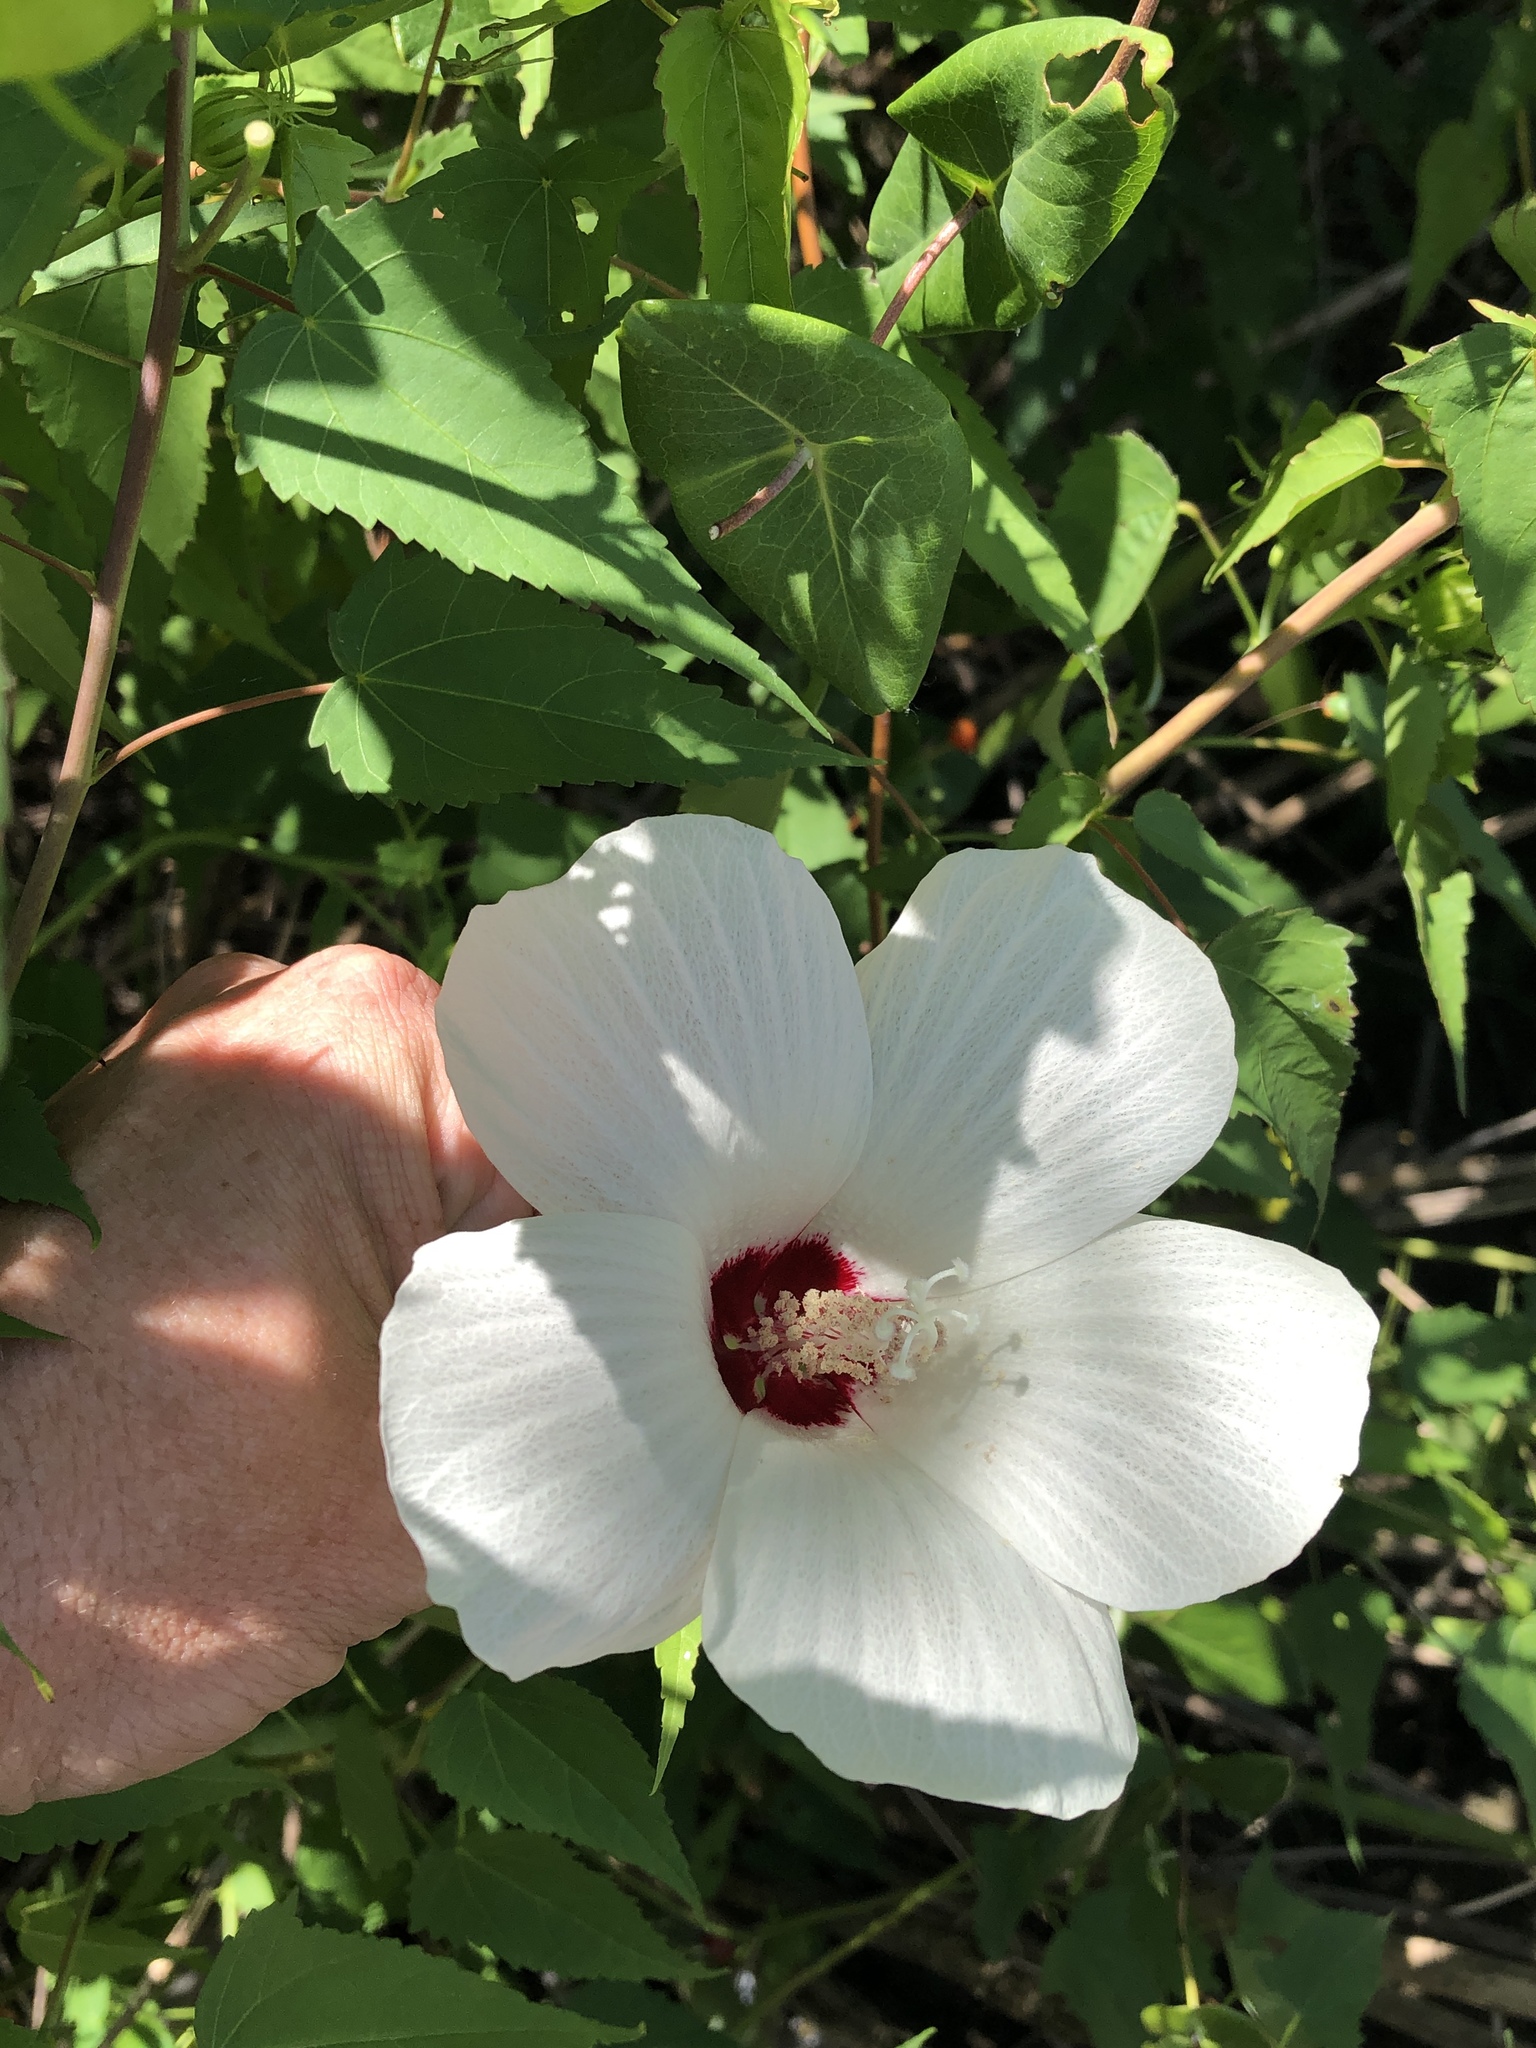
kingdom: Plantae
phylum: Tracheophyta
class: Magnoliopsida
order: Malvales
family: Malvaceae
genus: Hibiscus
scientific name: Hibiscus laevis
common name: Scarlet rose-mallow
